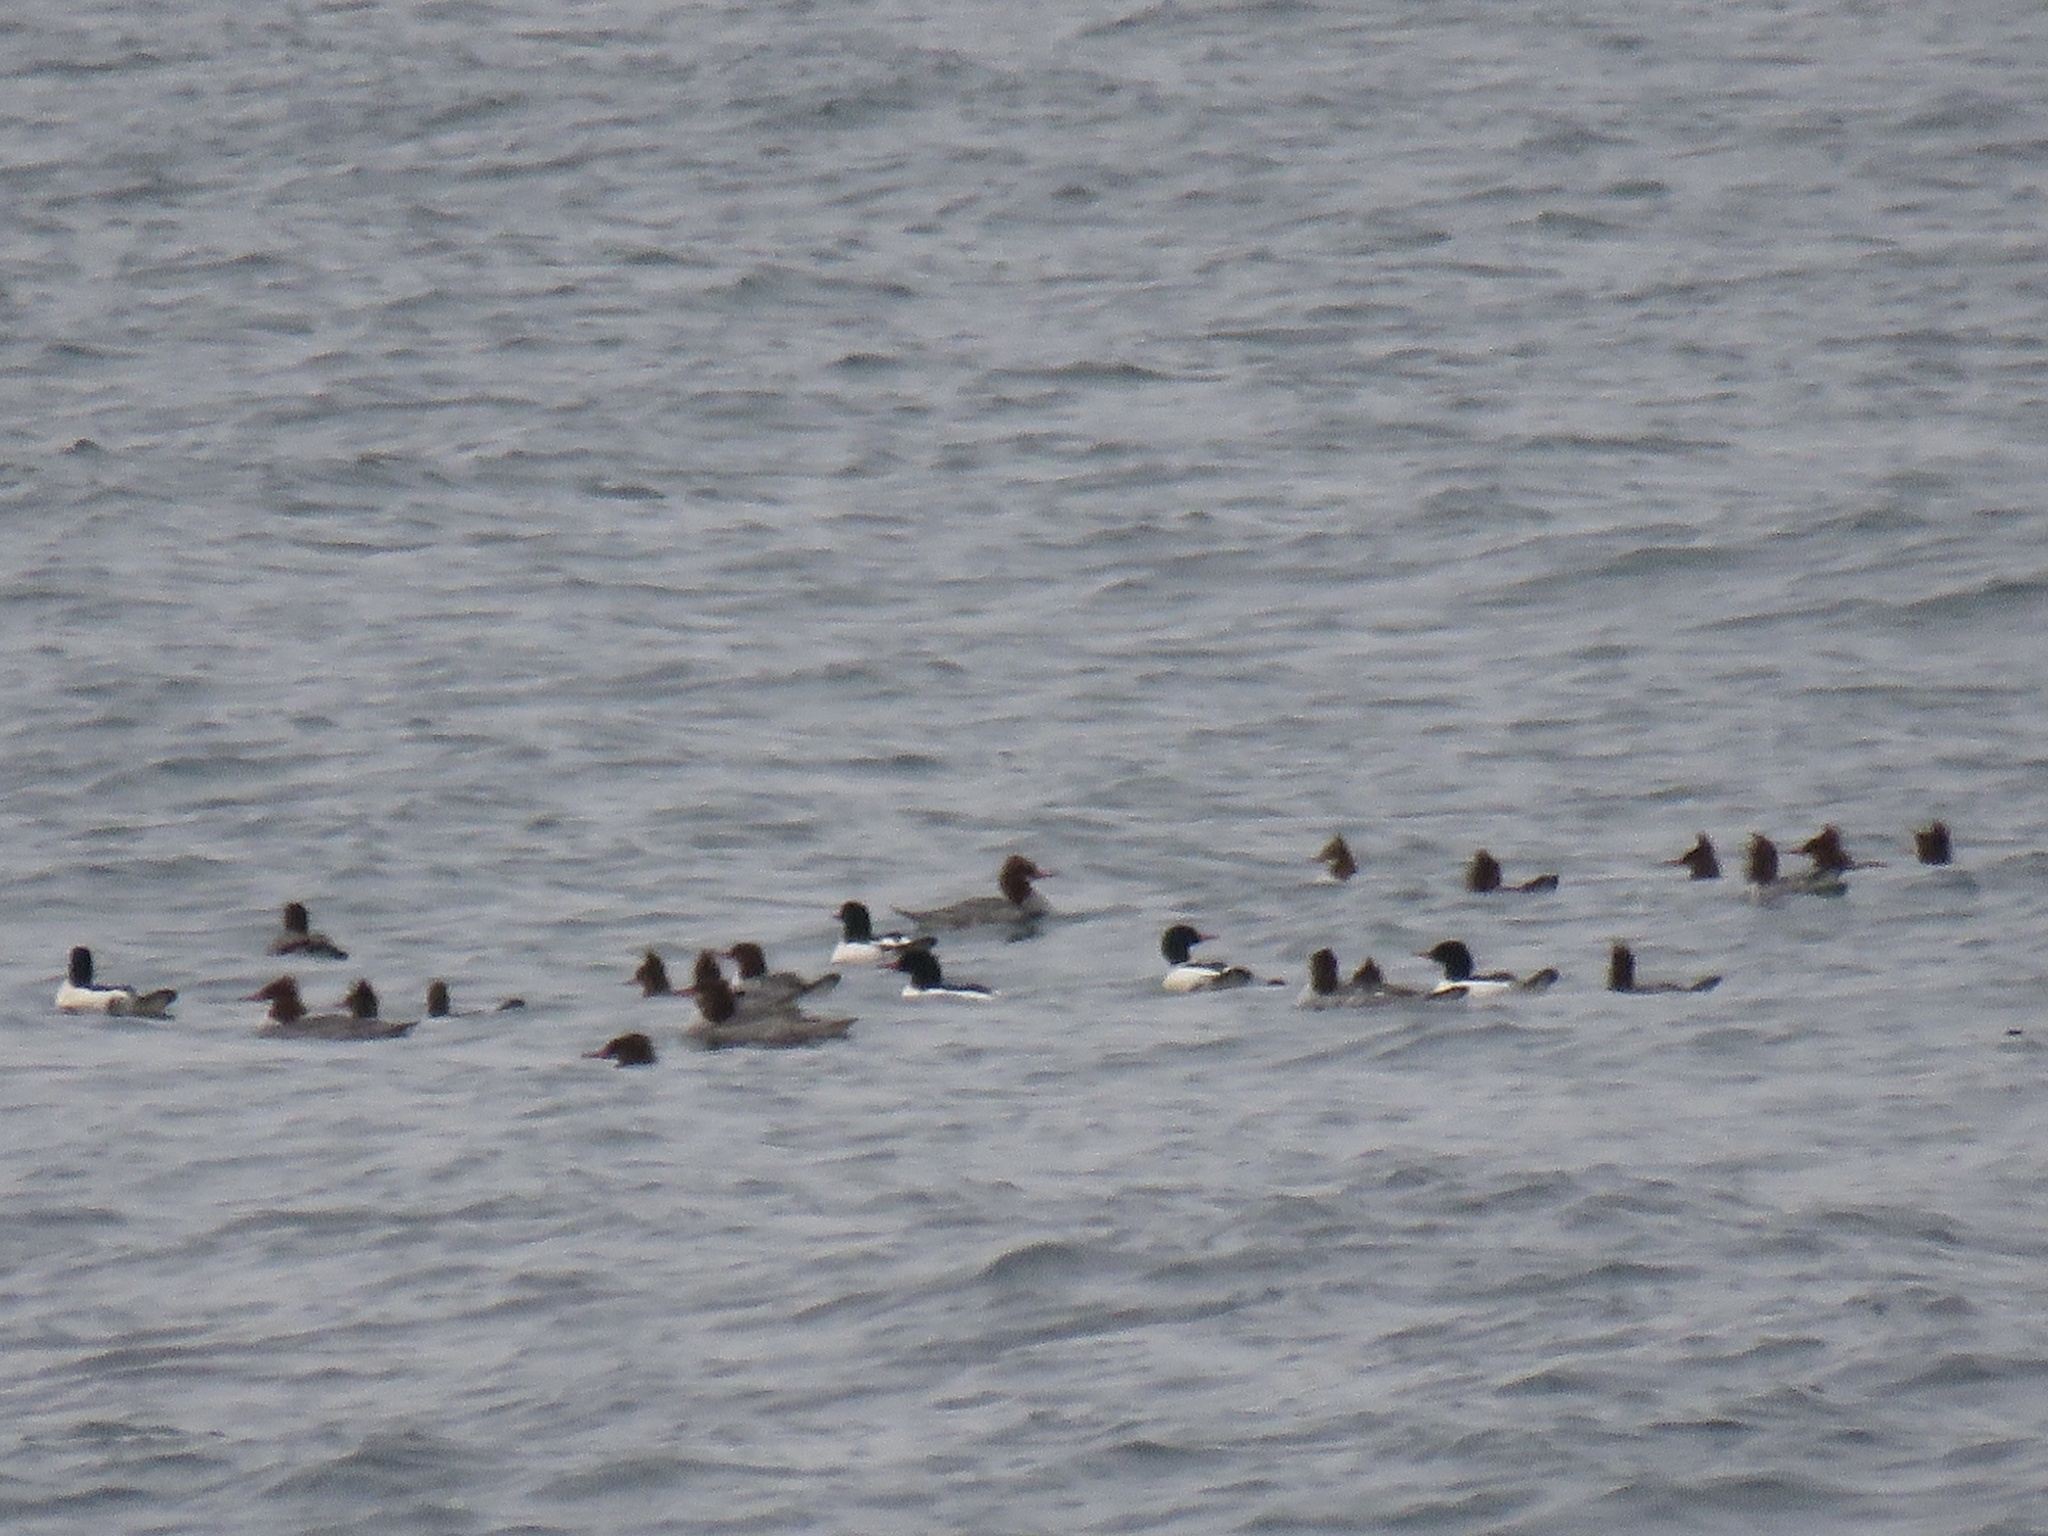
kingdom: Animalia
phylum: Chordata
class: Aves
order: Anseriformes
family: Anatidae
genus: Mergus
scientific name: Mergus merganser
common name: Common merganser
